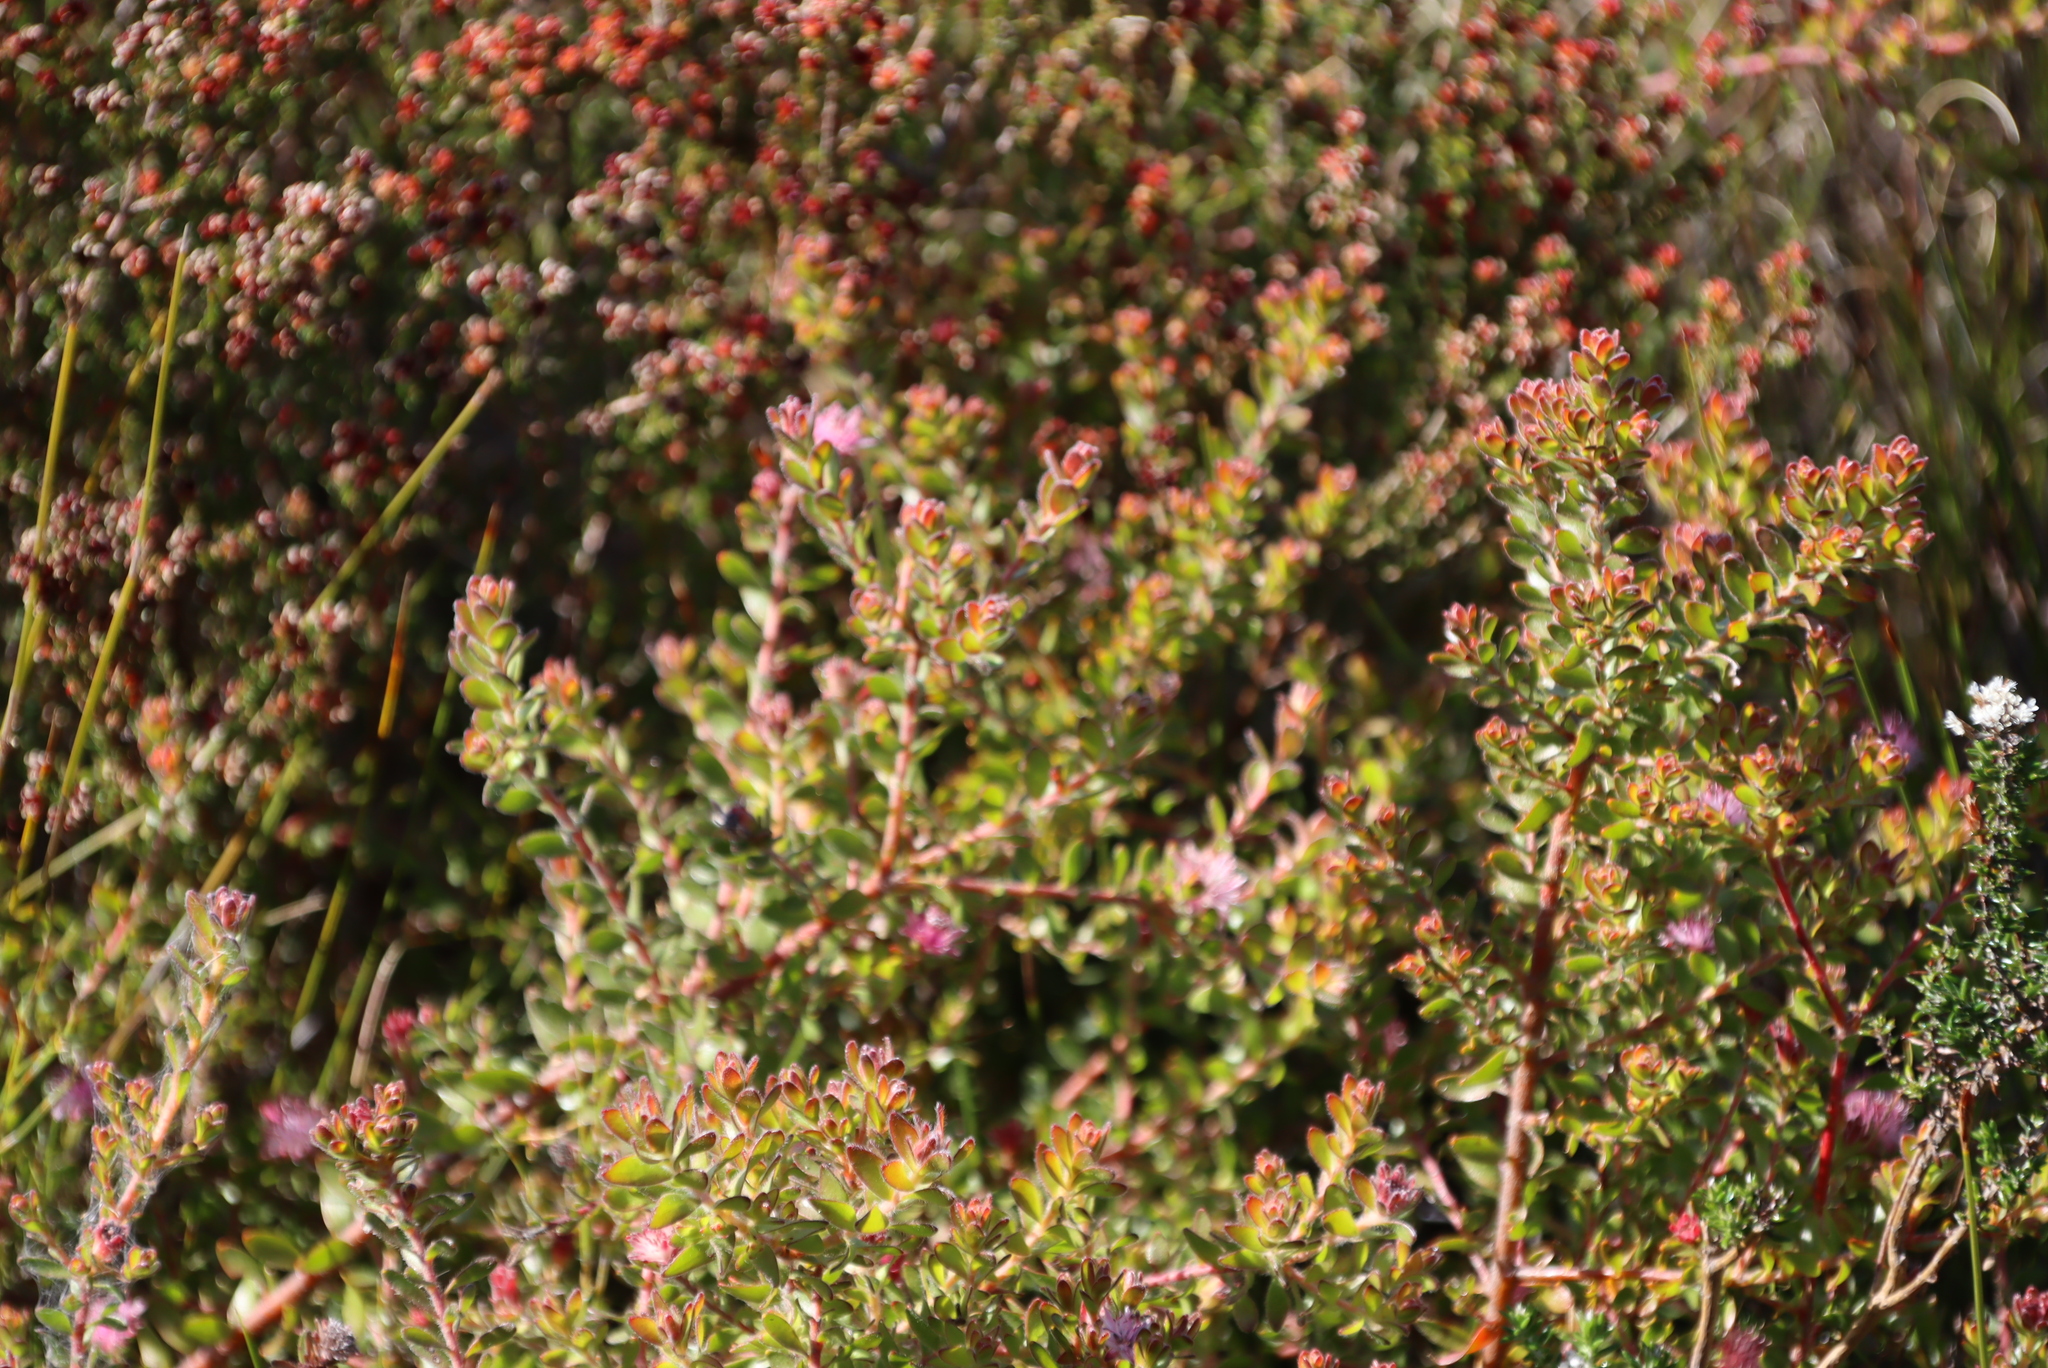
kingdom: Plantae
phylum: Tracheophyta
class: Magnoliopsida
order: Proteales
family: Proteaceae
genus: Diastella
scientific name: Diastella divaricata
